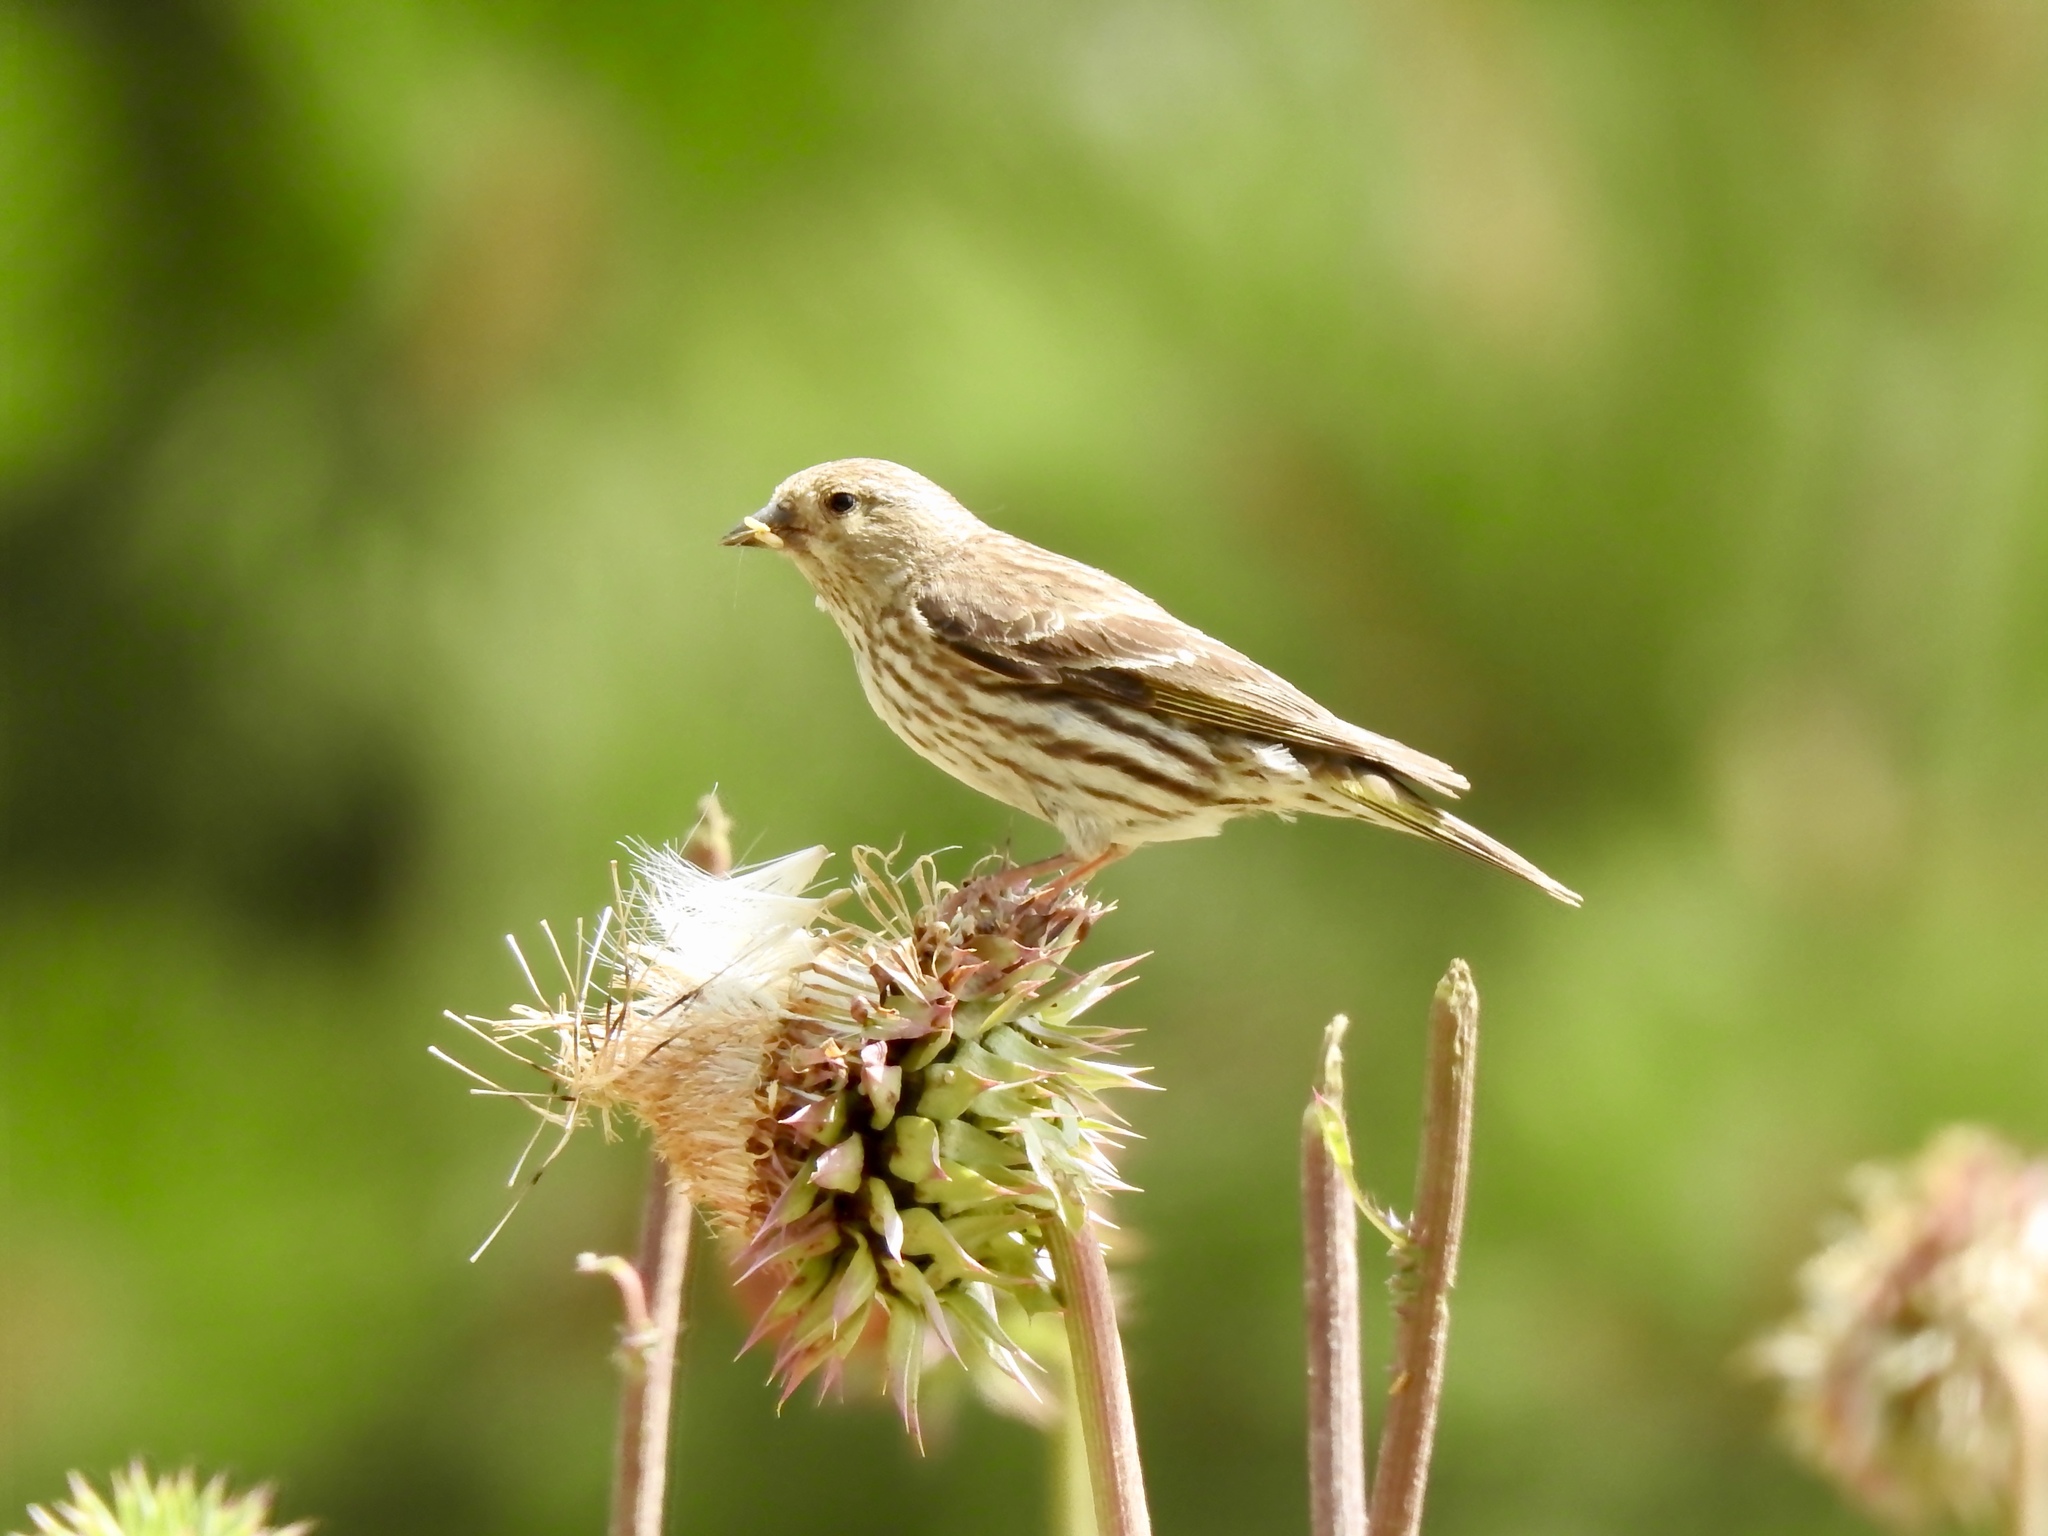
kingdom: Animalia
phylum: Chordata
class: Aves
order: Passeriformes
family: Fringillidae
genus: Spinus
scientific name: Spinus pinus
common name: Pine siskin
